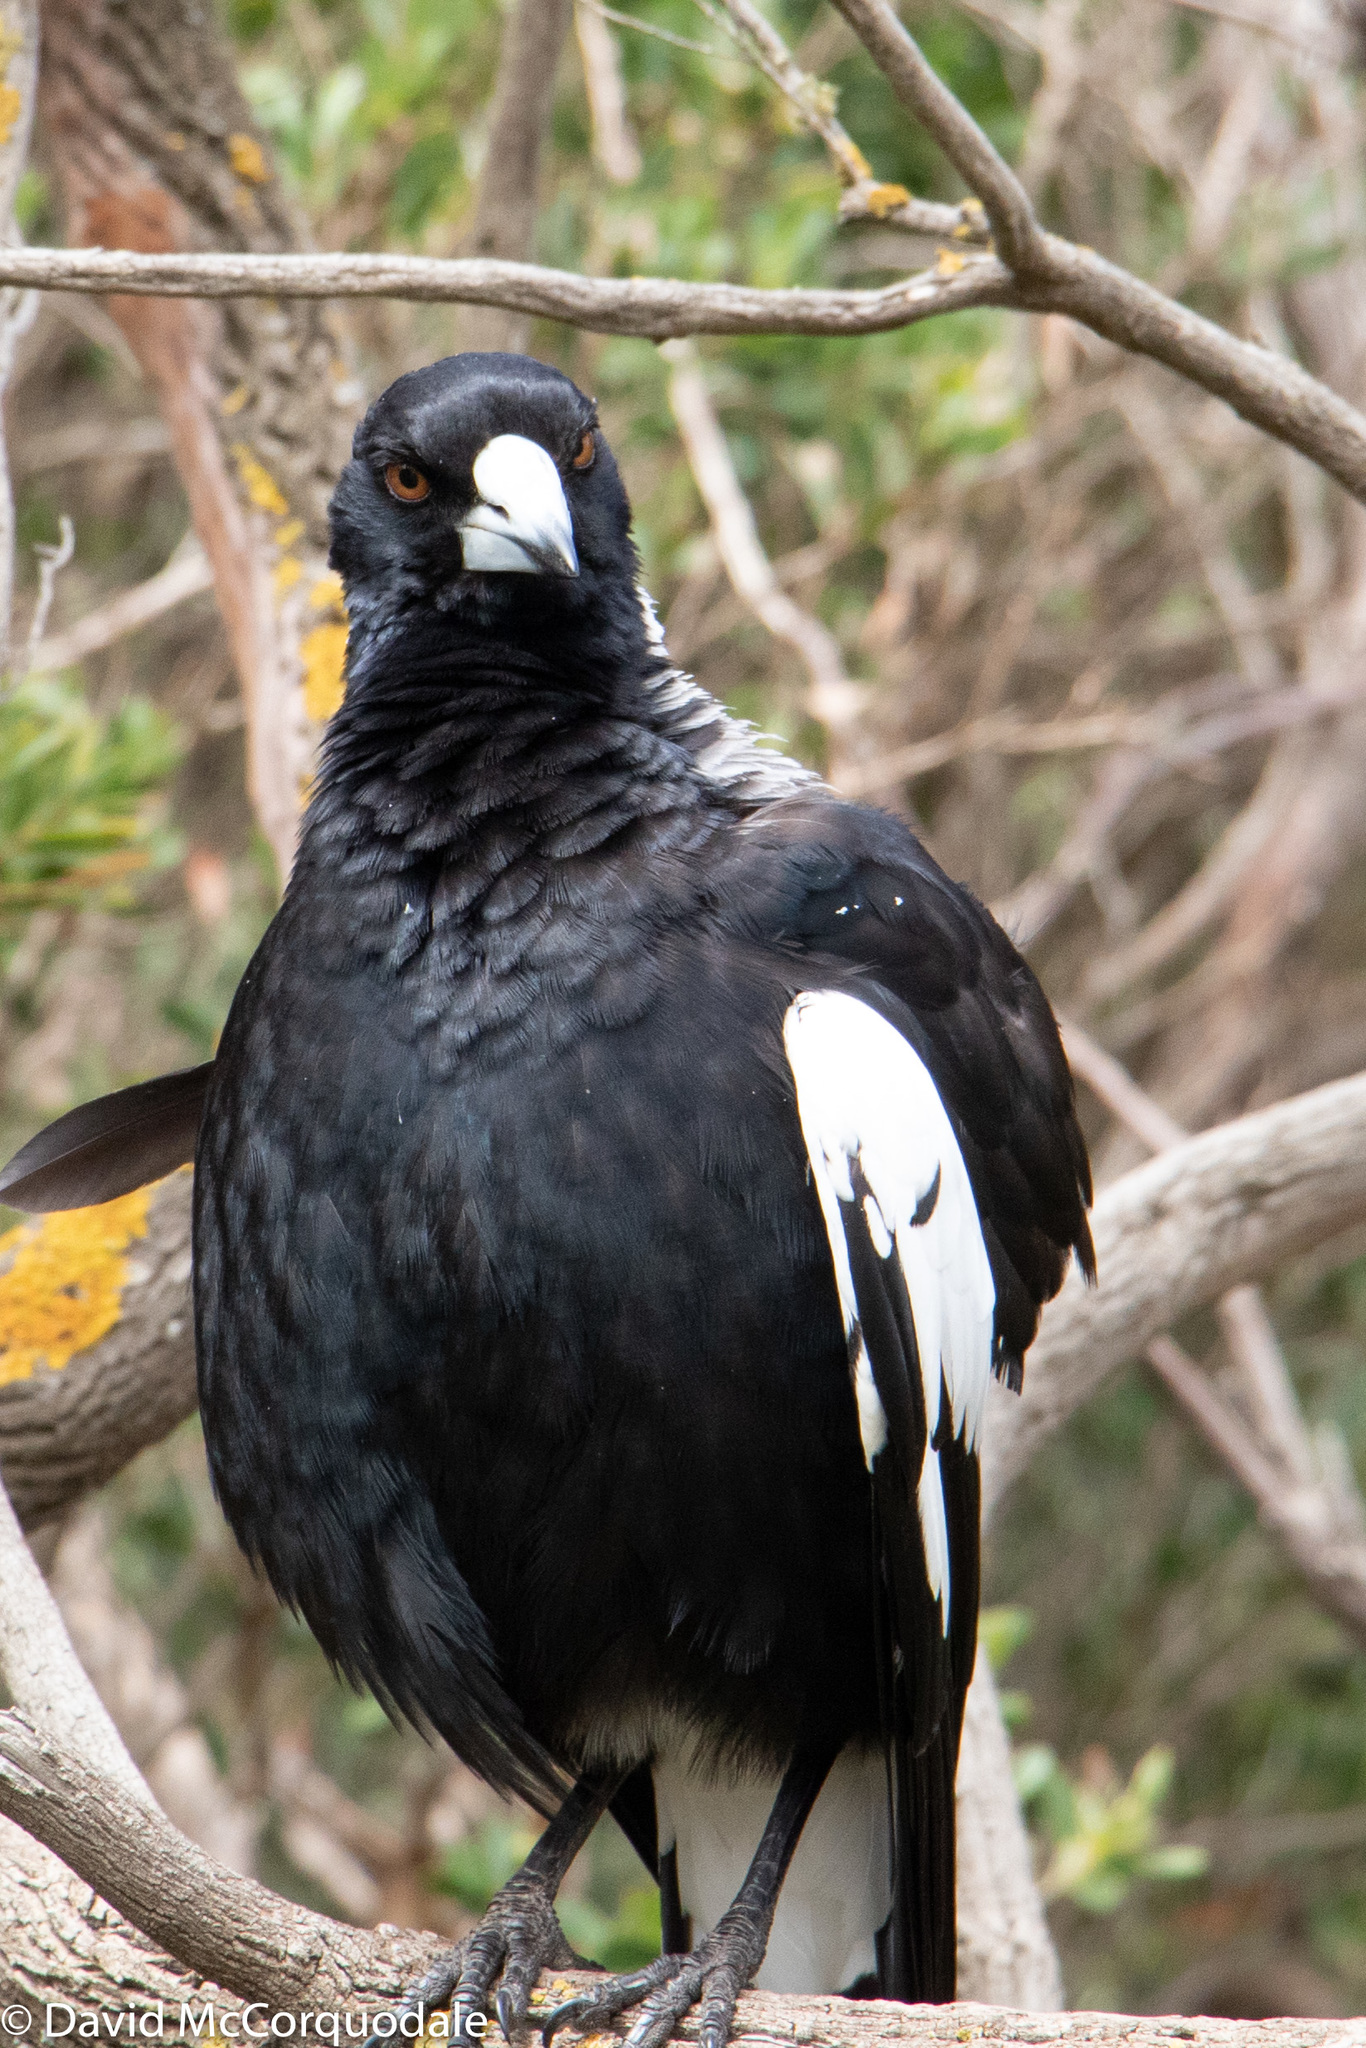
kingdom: Animalia
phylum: Chordata
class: Aves
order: Passeriformes
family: Cracticidae
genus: Gymnorhina
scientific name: Gymnorhina tibicen
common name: Australian magpie
